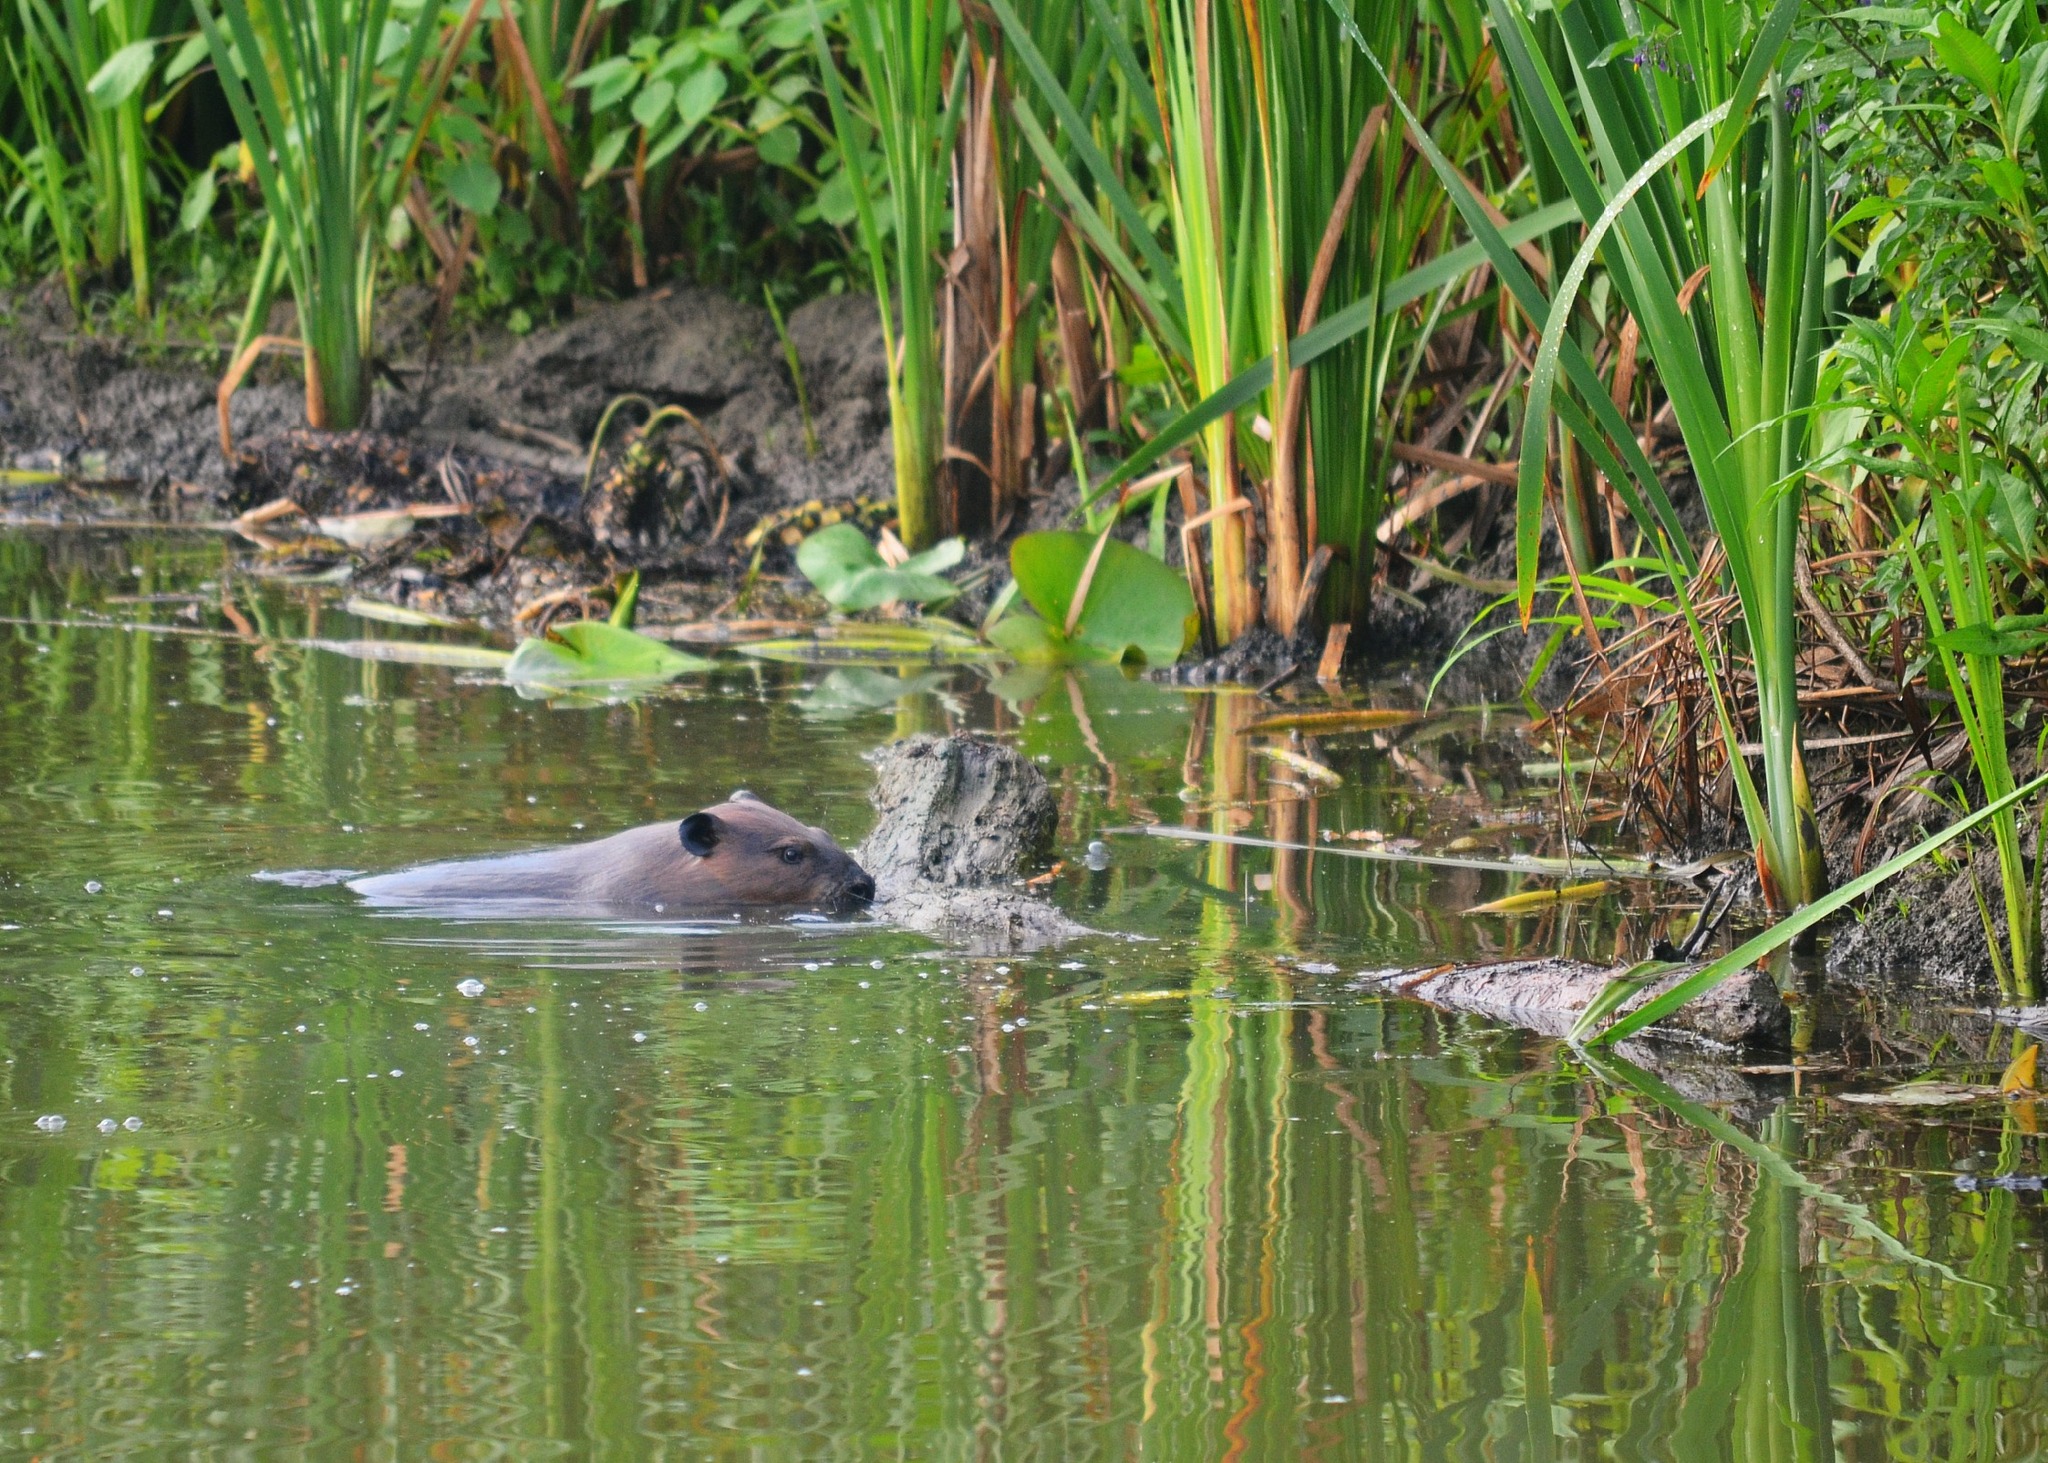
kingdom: Animalia
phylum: Chordata
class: Mammalia
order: Rodentia
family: Castoridae
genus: Castor
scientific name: Castor canadensis
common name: American beaver
